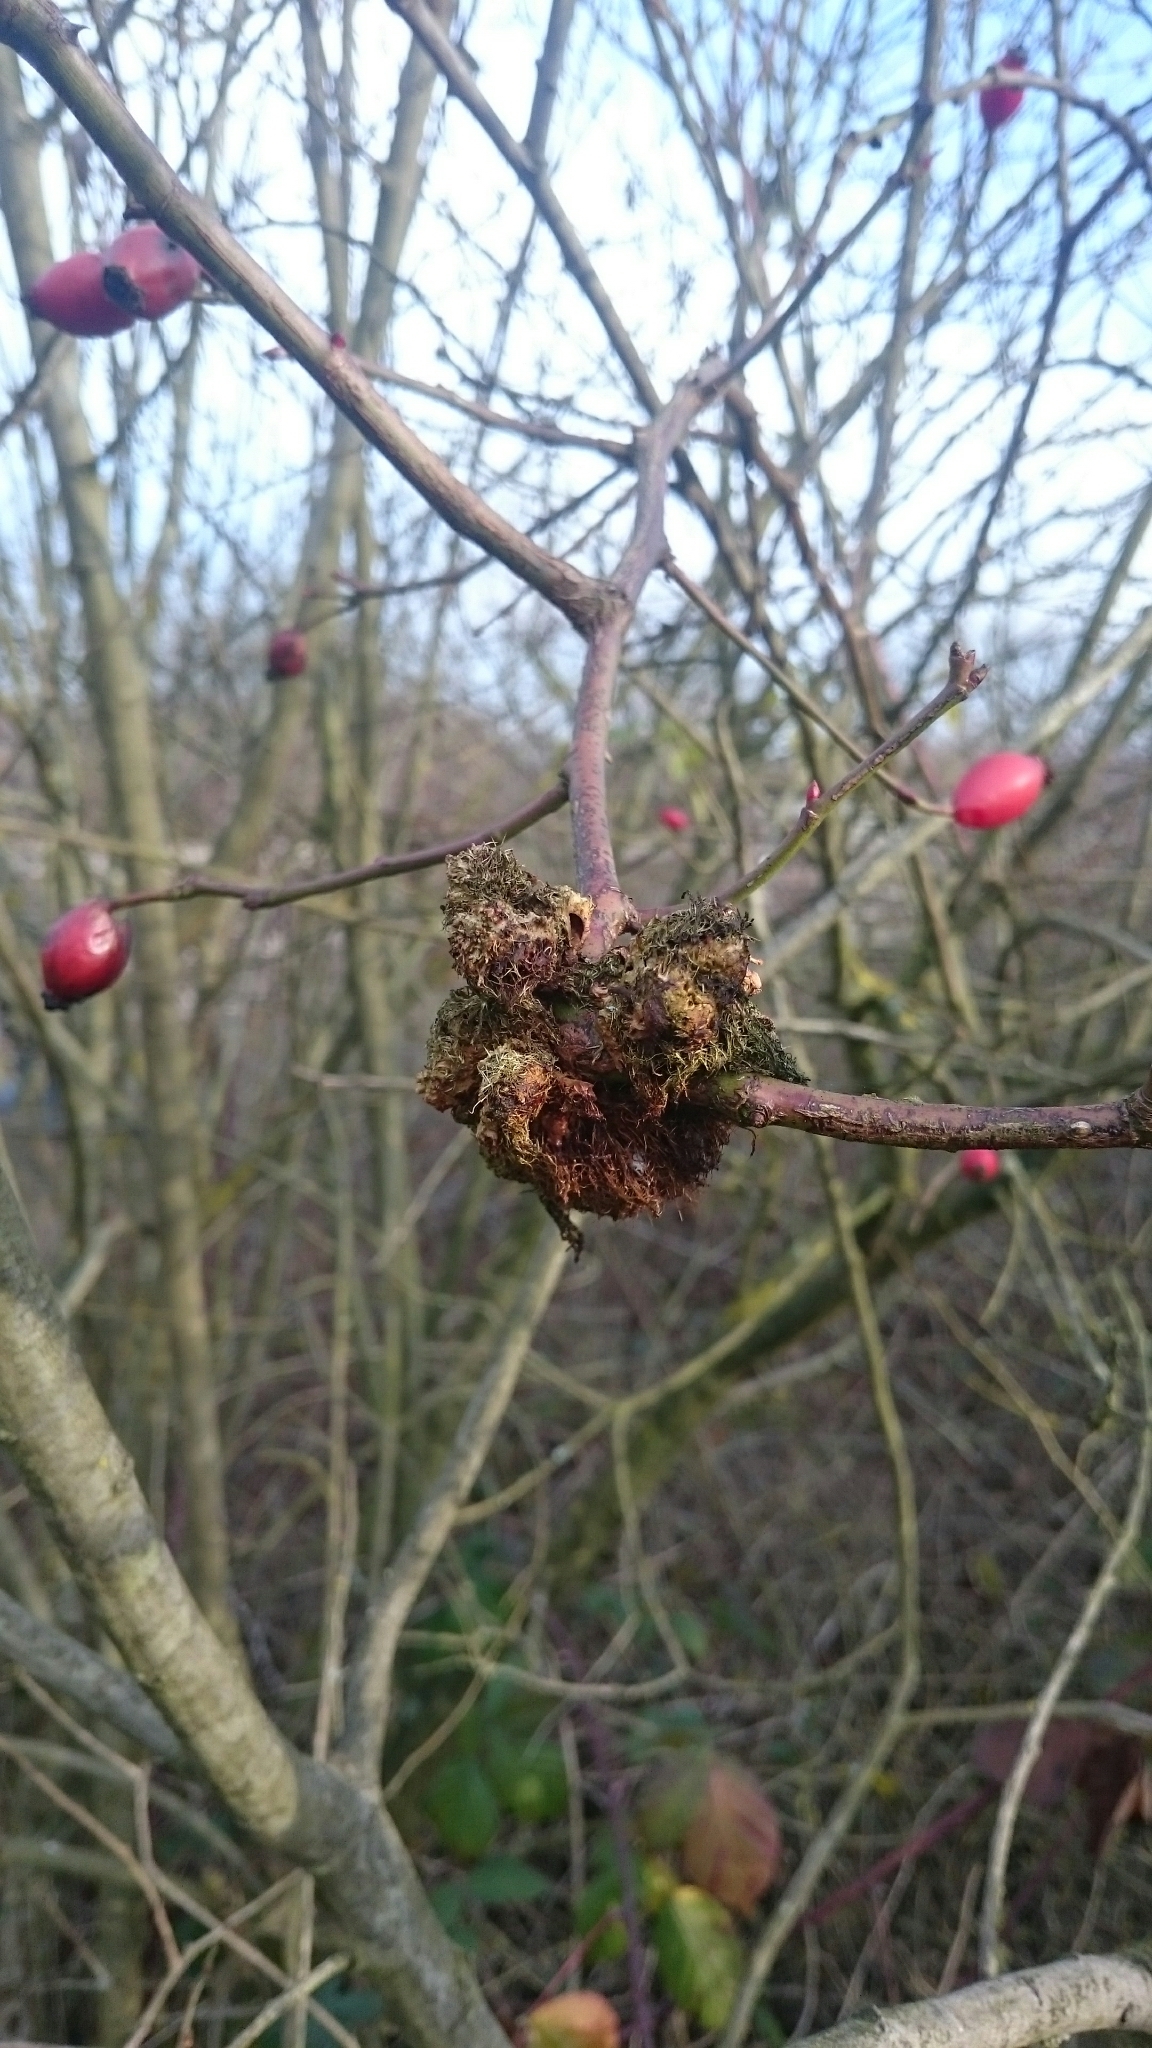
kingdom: Animalia
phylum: Arthropoda
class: Insecta
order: Hymenoptera
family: Cynipidae
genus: Diplolepis
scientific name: Diplolepis rosae
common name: Bedeguar gall
